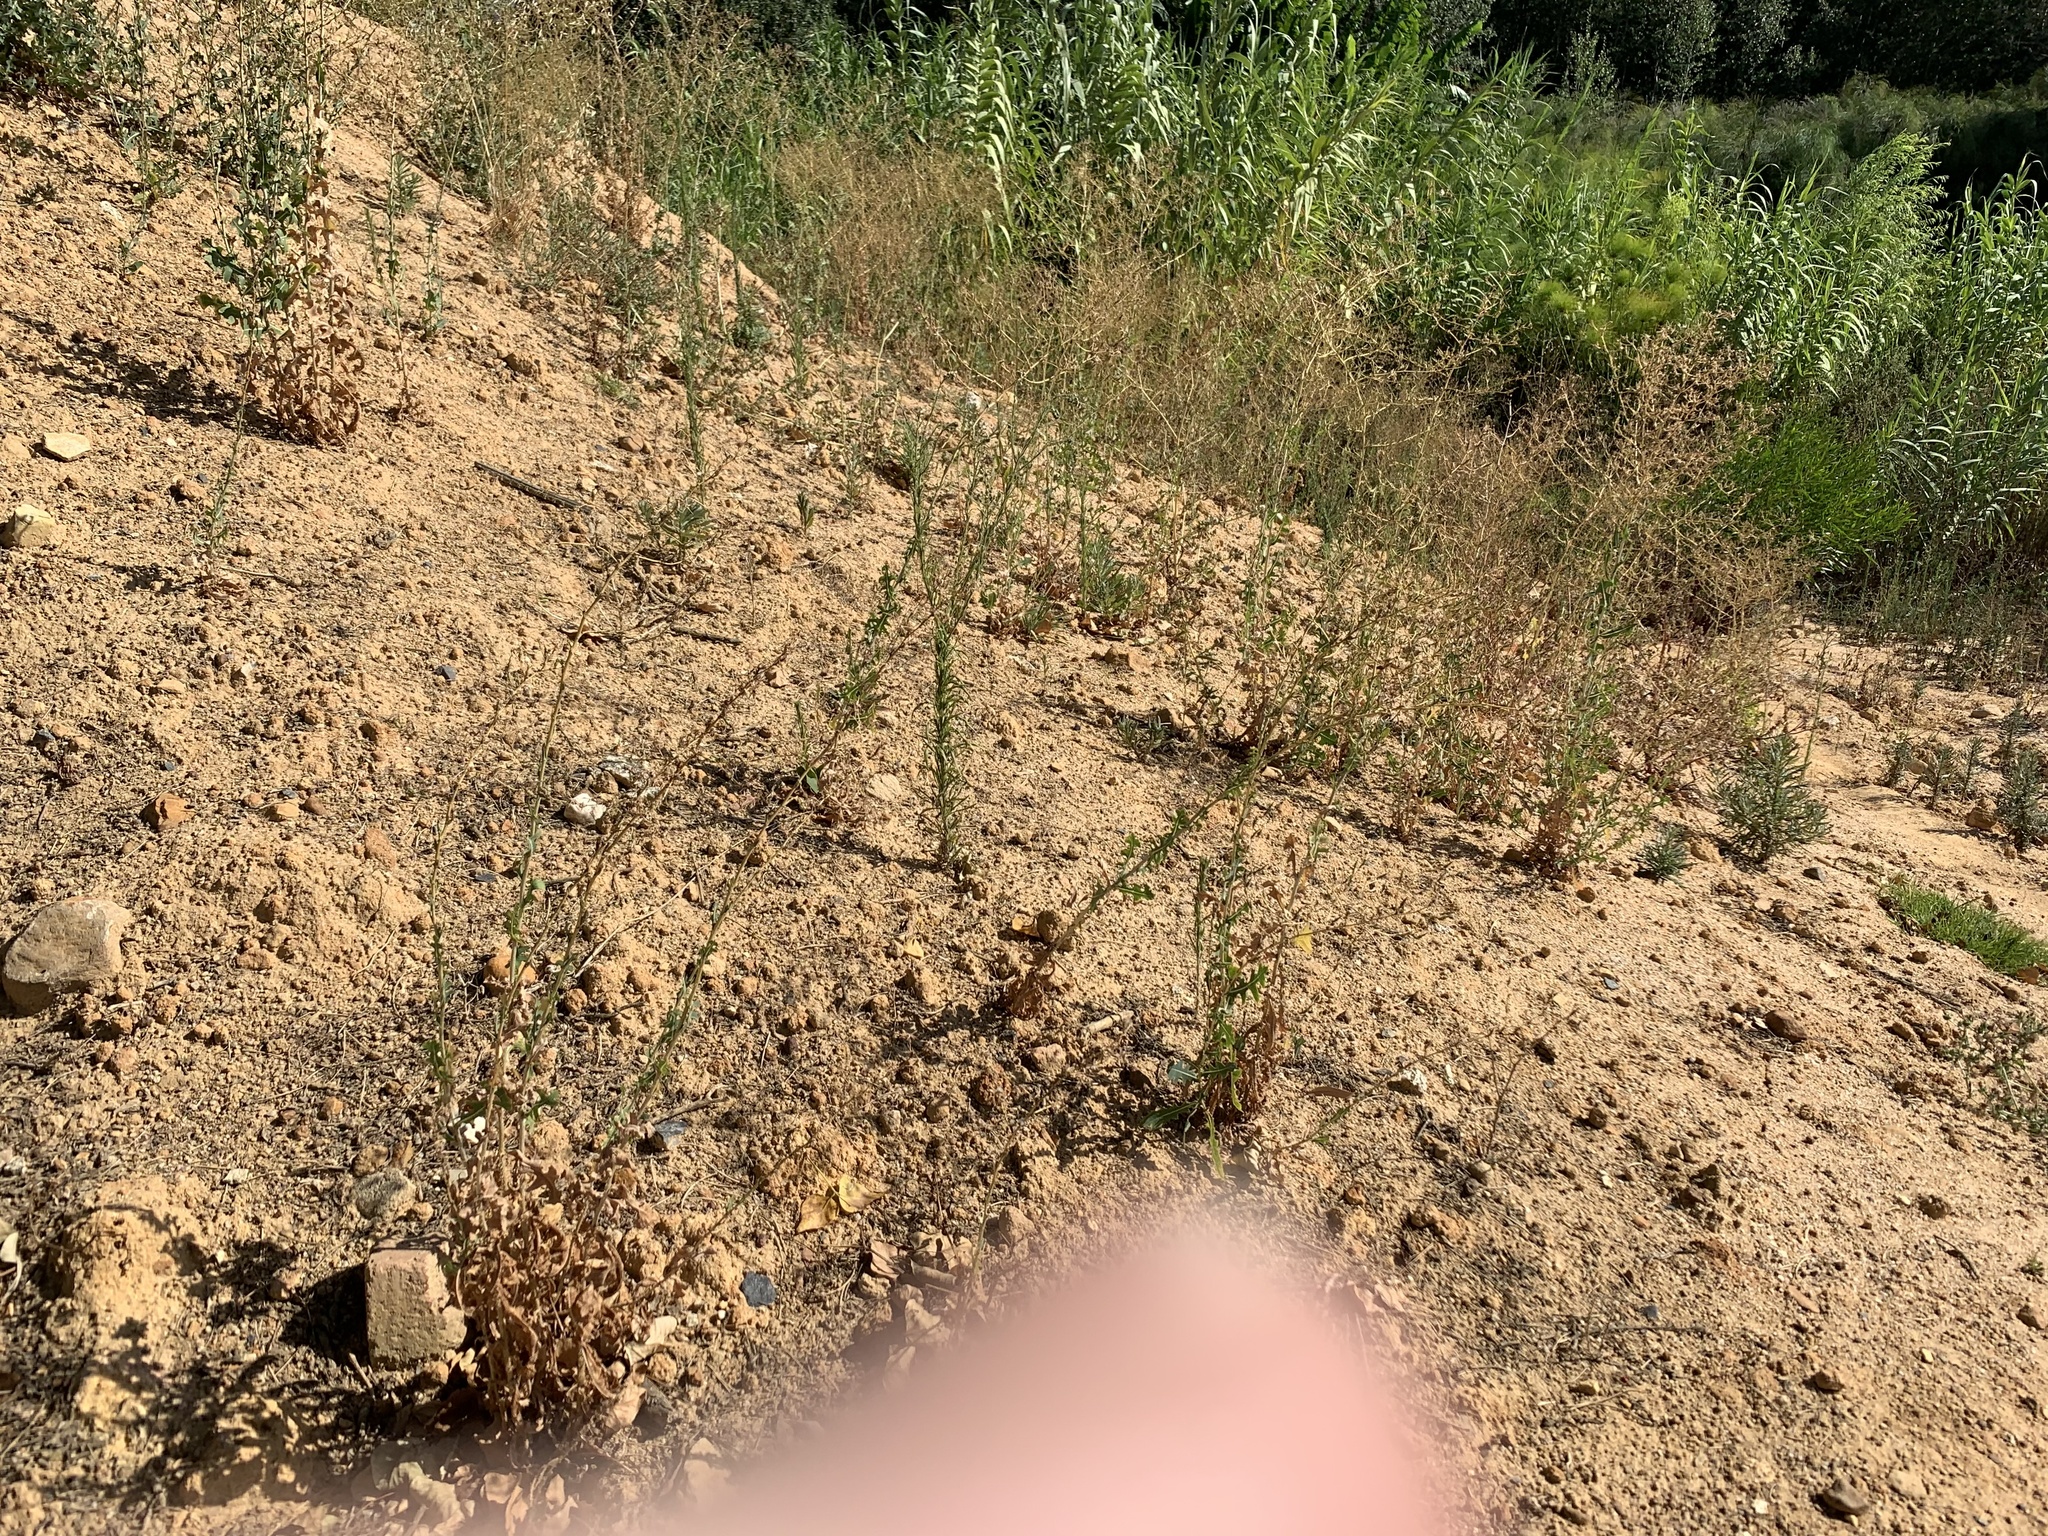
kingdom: Plantae
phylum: Tracheophyta
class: Magnoliopsida
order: Asterales
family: Asteraceae
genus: Lactuca
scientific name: Lactuca serriola
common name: Prickly lettuce
